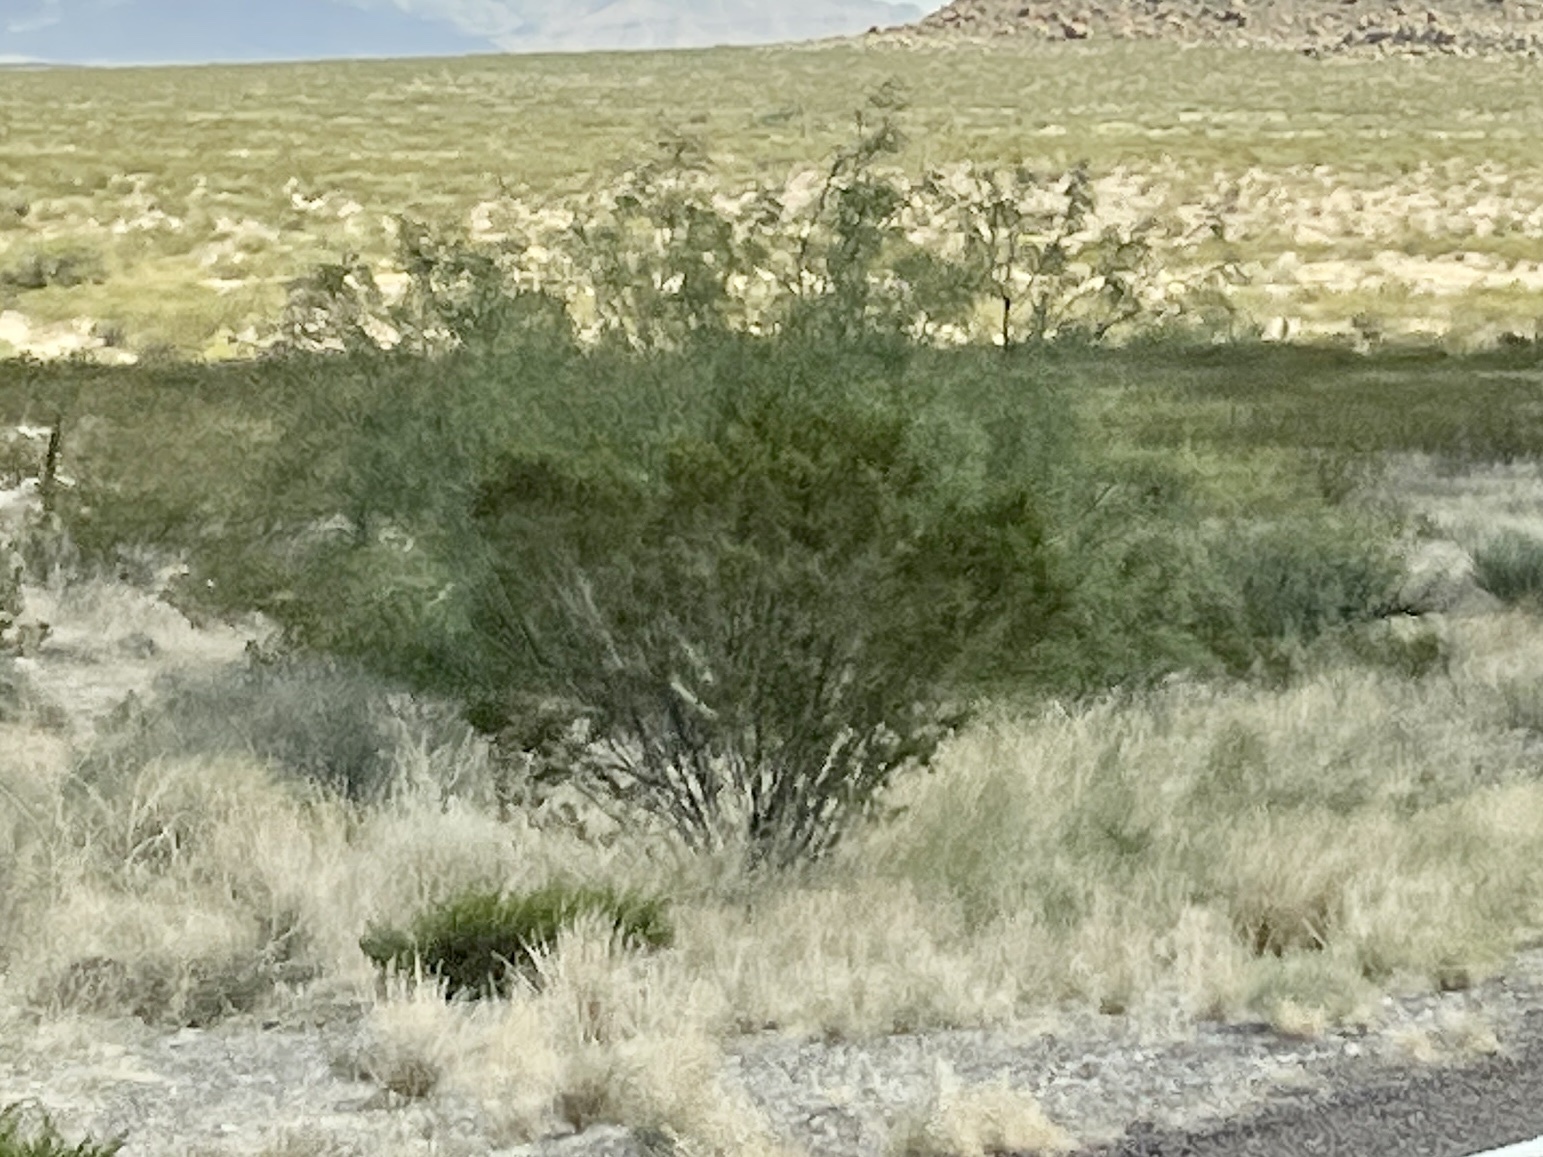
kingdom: Plantae
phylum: Tracheophyta
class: Magnoliopsida
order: Zygophyllales
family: Zygophyllaceae
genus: Larrea
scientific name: Larrea tridentata
